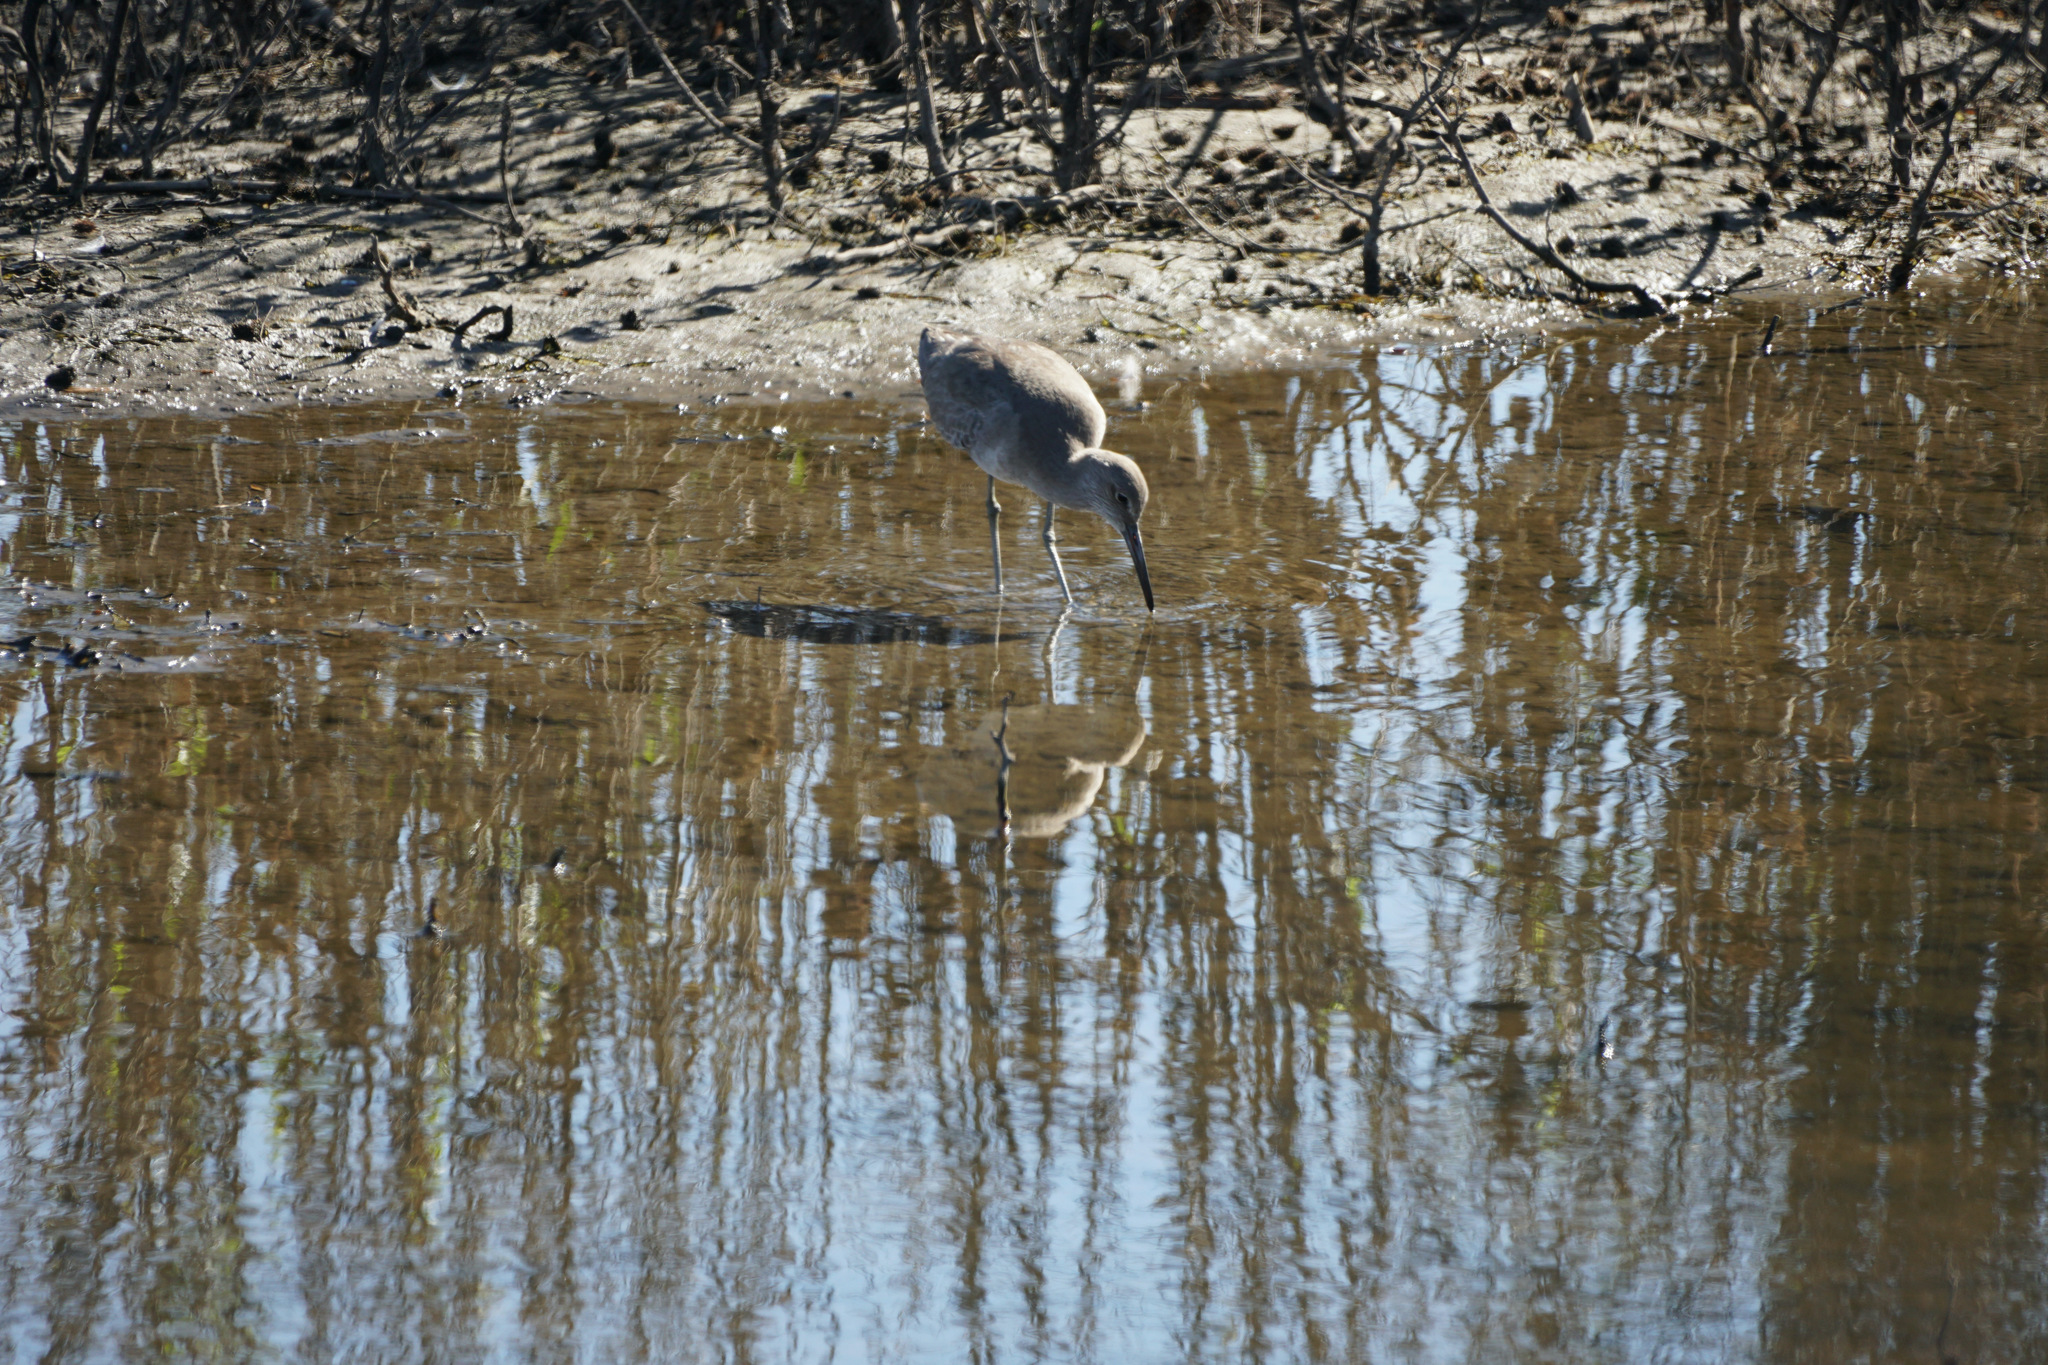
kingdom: Animalia
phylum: Chordata
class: Aves
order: Charadriiformes
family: Scolopacidae
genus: Tringa
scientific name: Tringa semipalmata
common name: Willet
